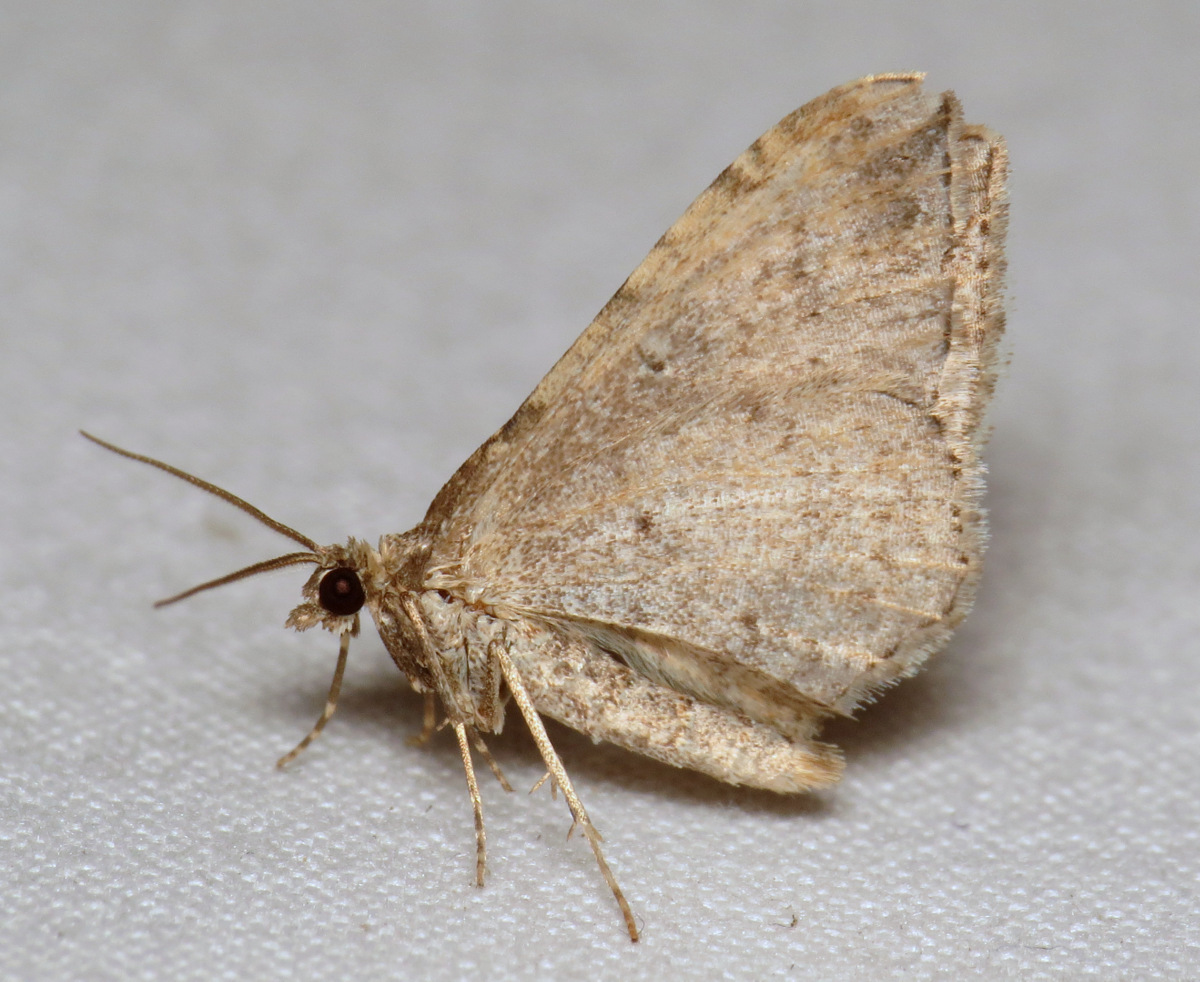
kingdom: Animalia
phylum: Arthropoda
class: Insecta
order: Lepidoptera
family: Geometridae
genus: Orthonama
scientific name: Orthonama obstipata
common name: The gem
